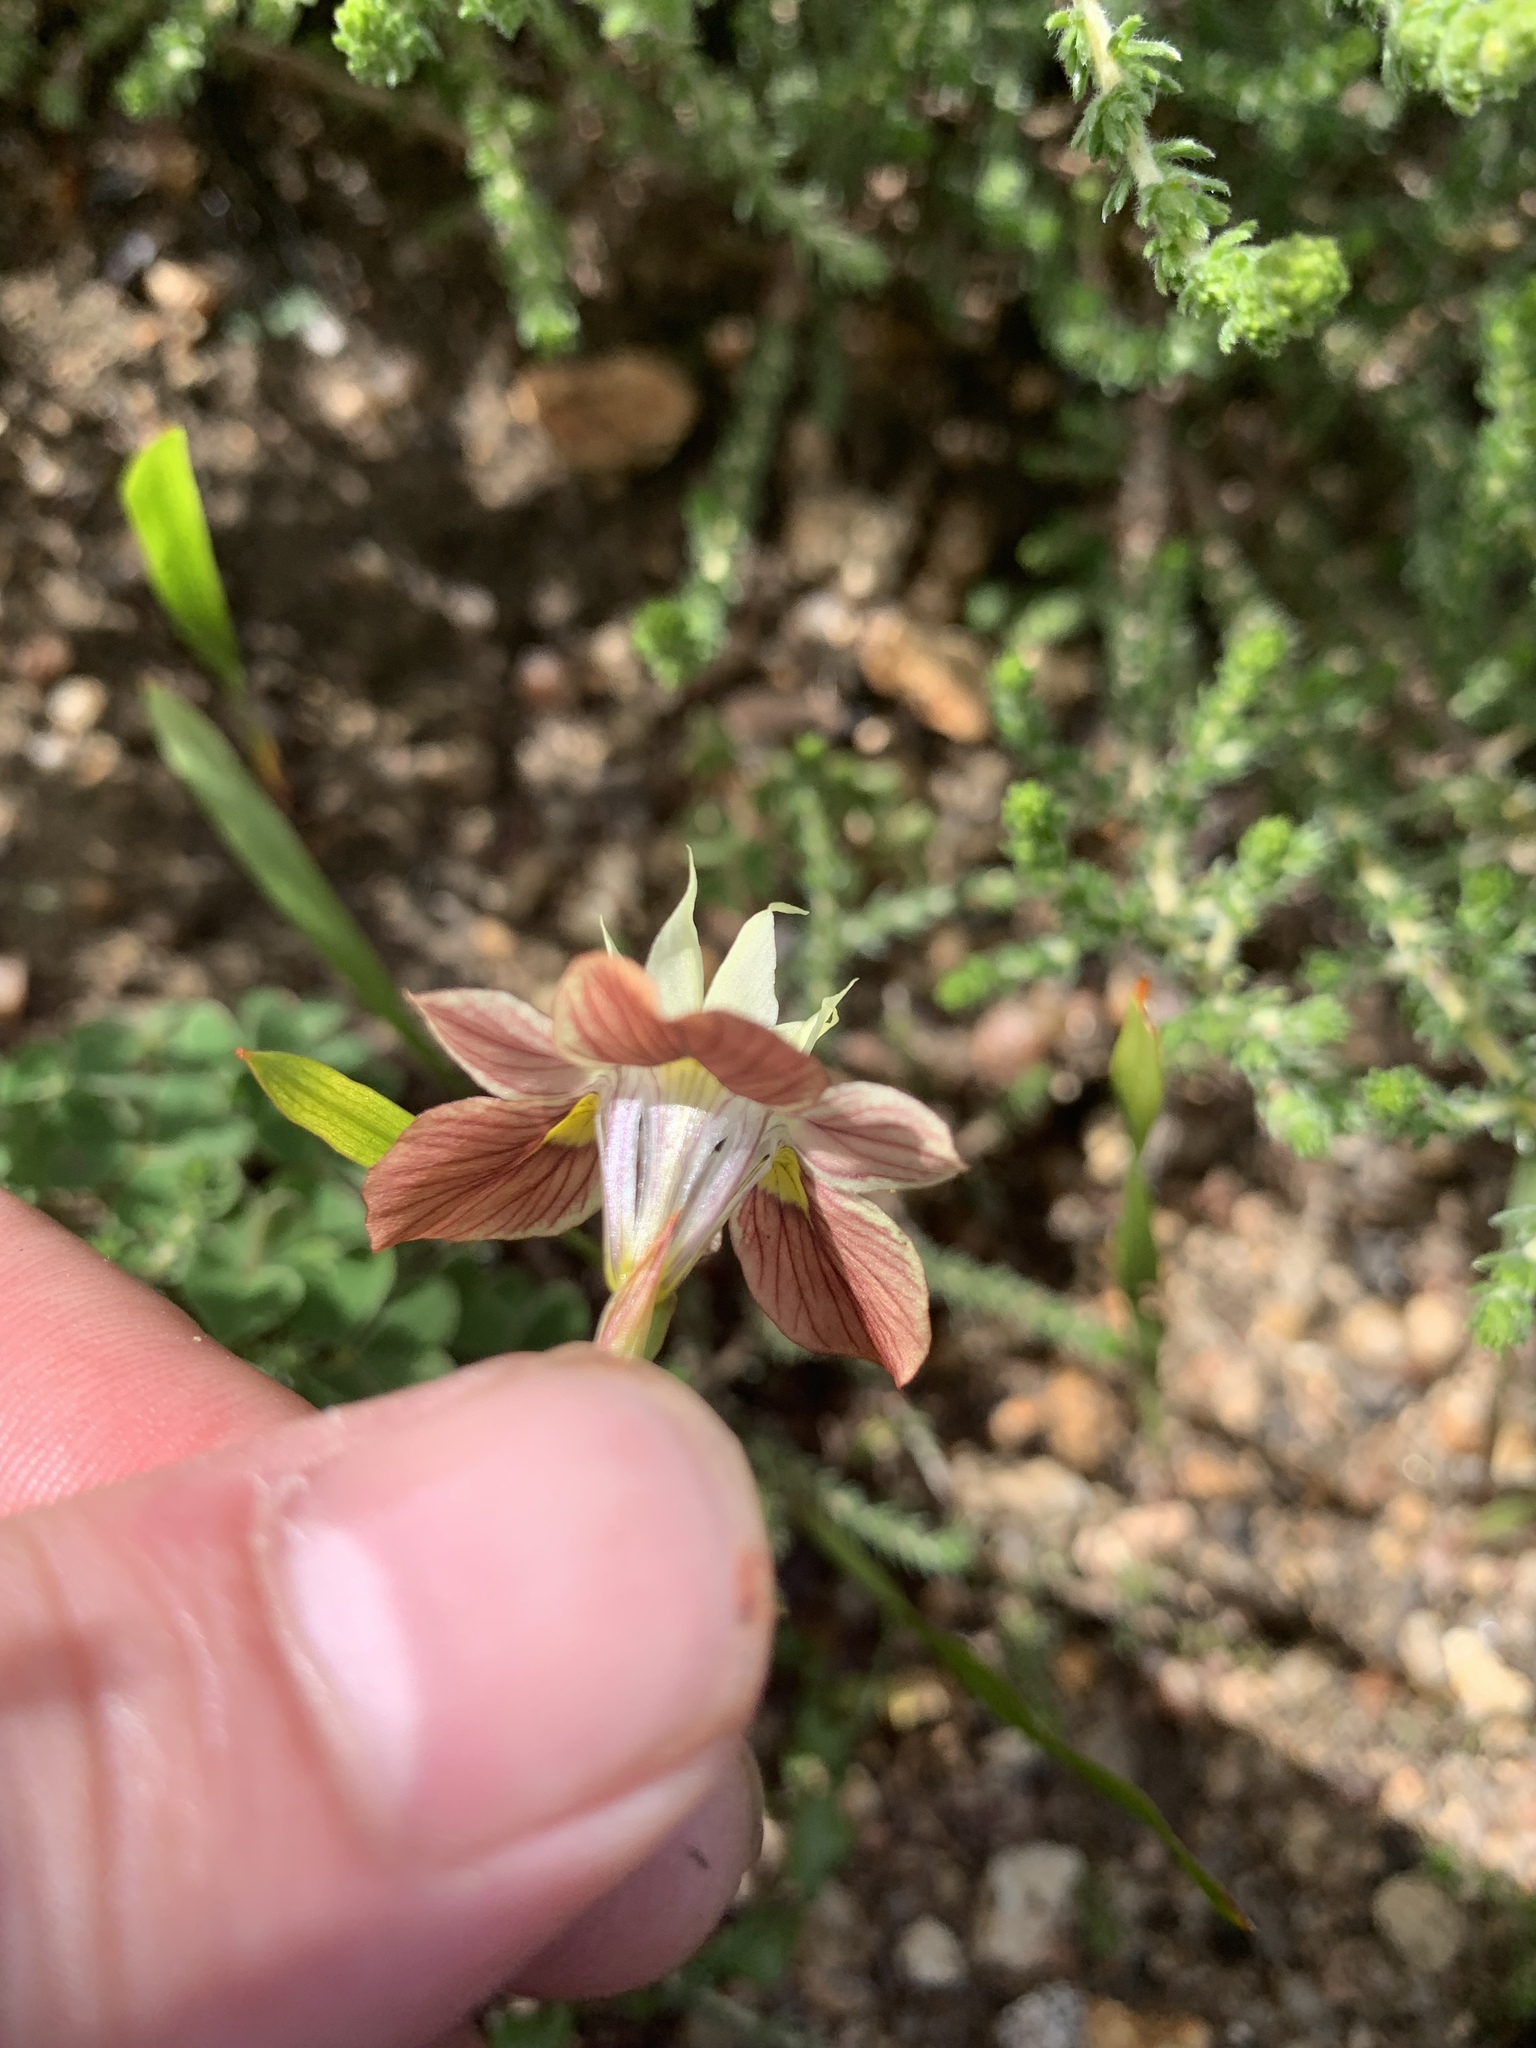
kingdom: Plantae
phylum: Tracheophyta
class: Liliopsida
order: Asparagales
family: Iridaceae
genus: Moraea
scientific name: Moraea gawleri
